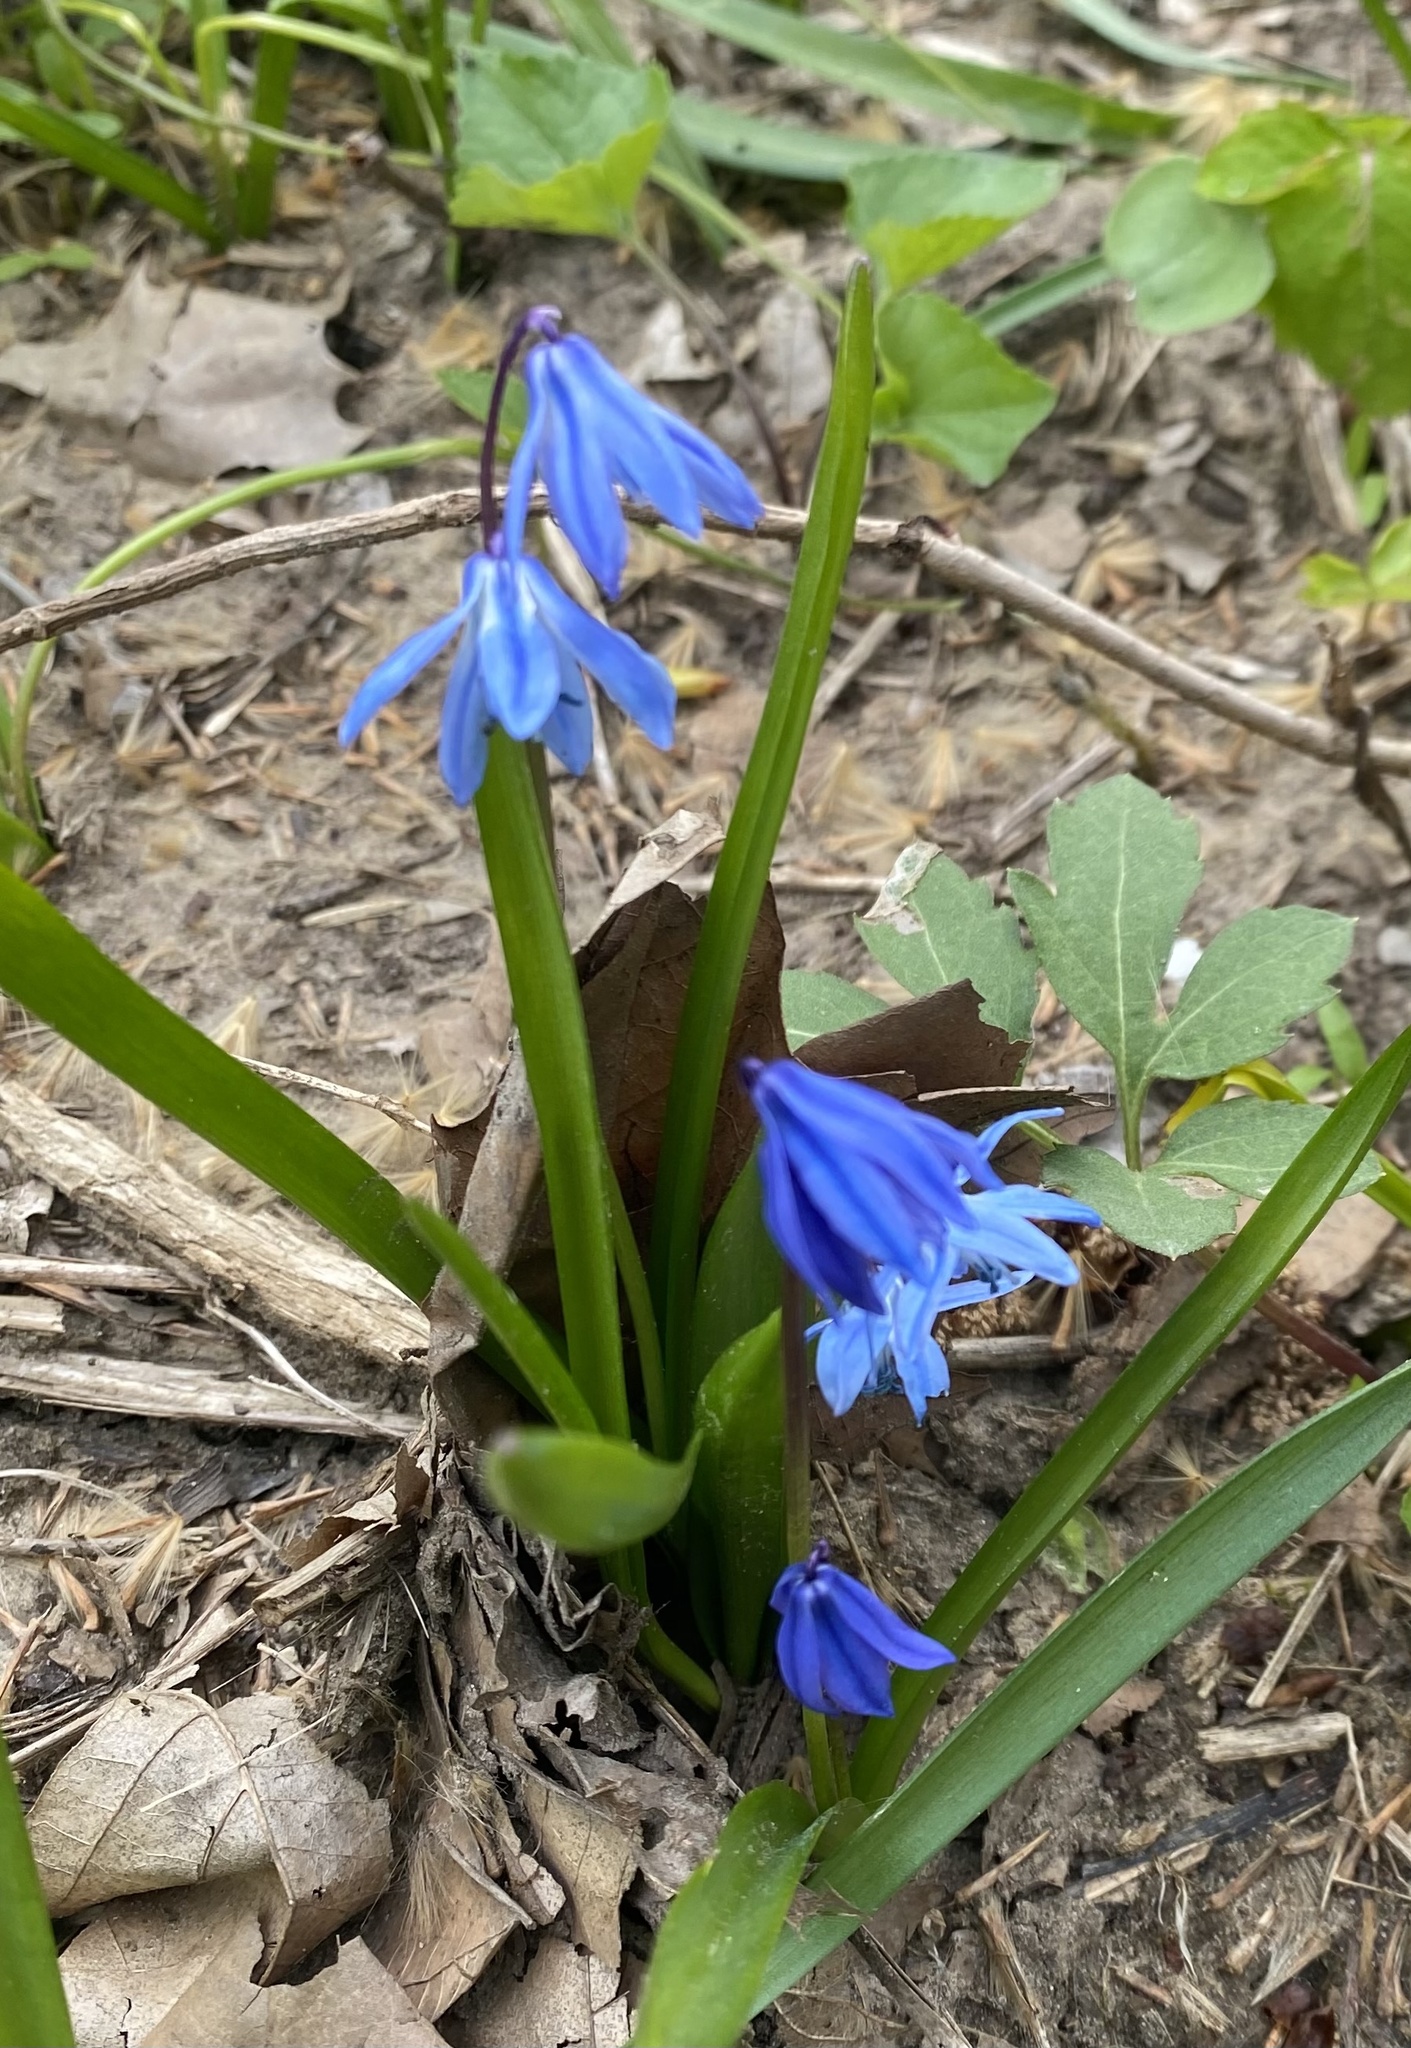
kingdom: Plantae
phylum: Tracheophyta
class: Liliopsida
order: Asparagales
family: Asparagaceae
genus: Scilla
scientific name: Scilla siberica
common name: Siberian squill
